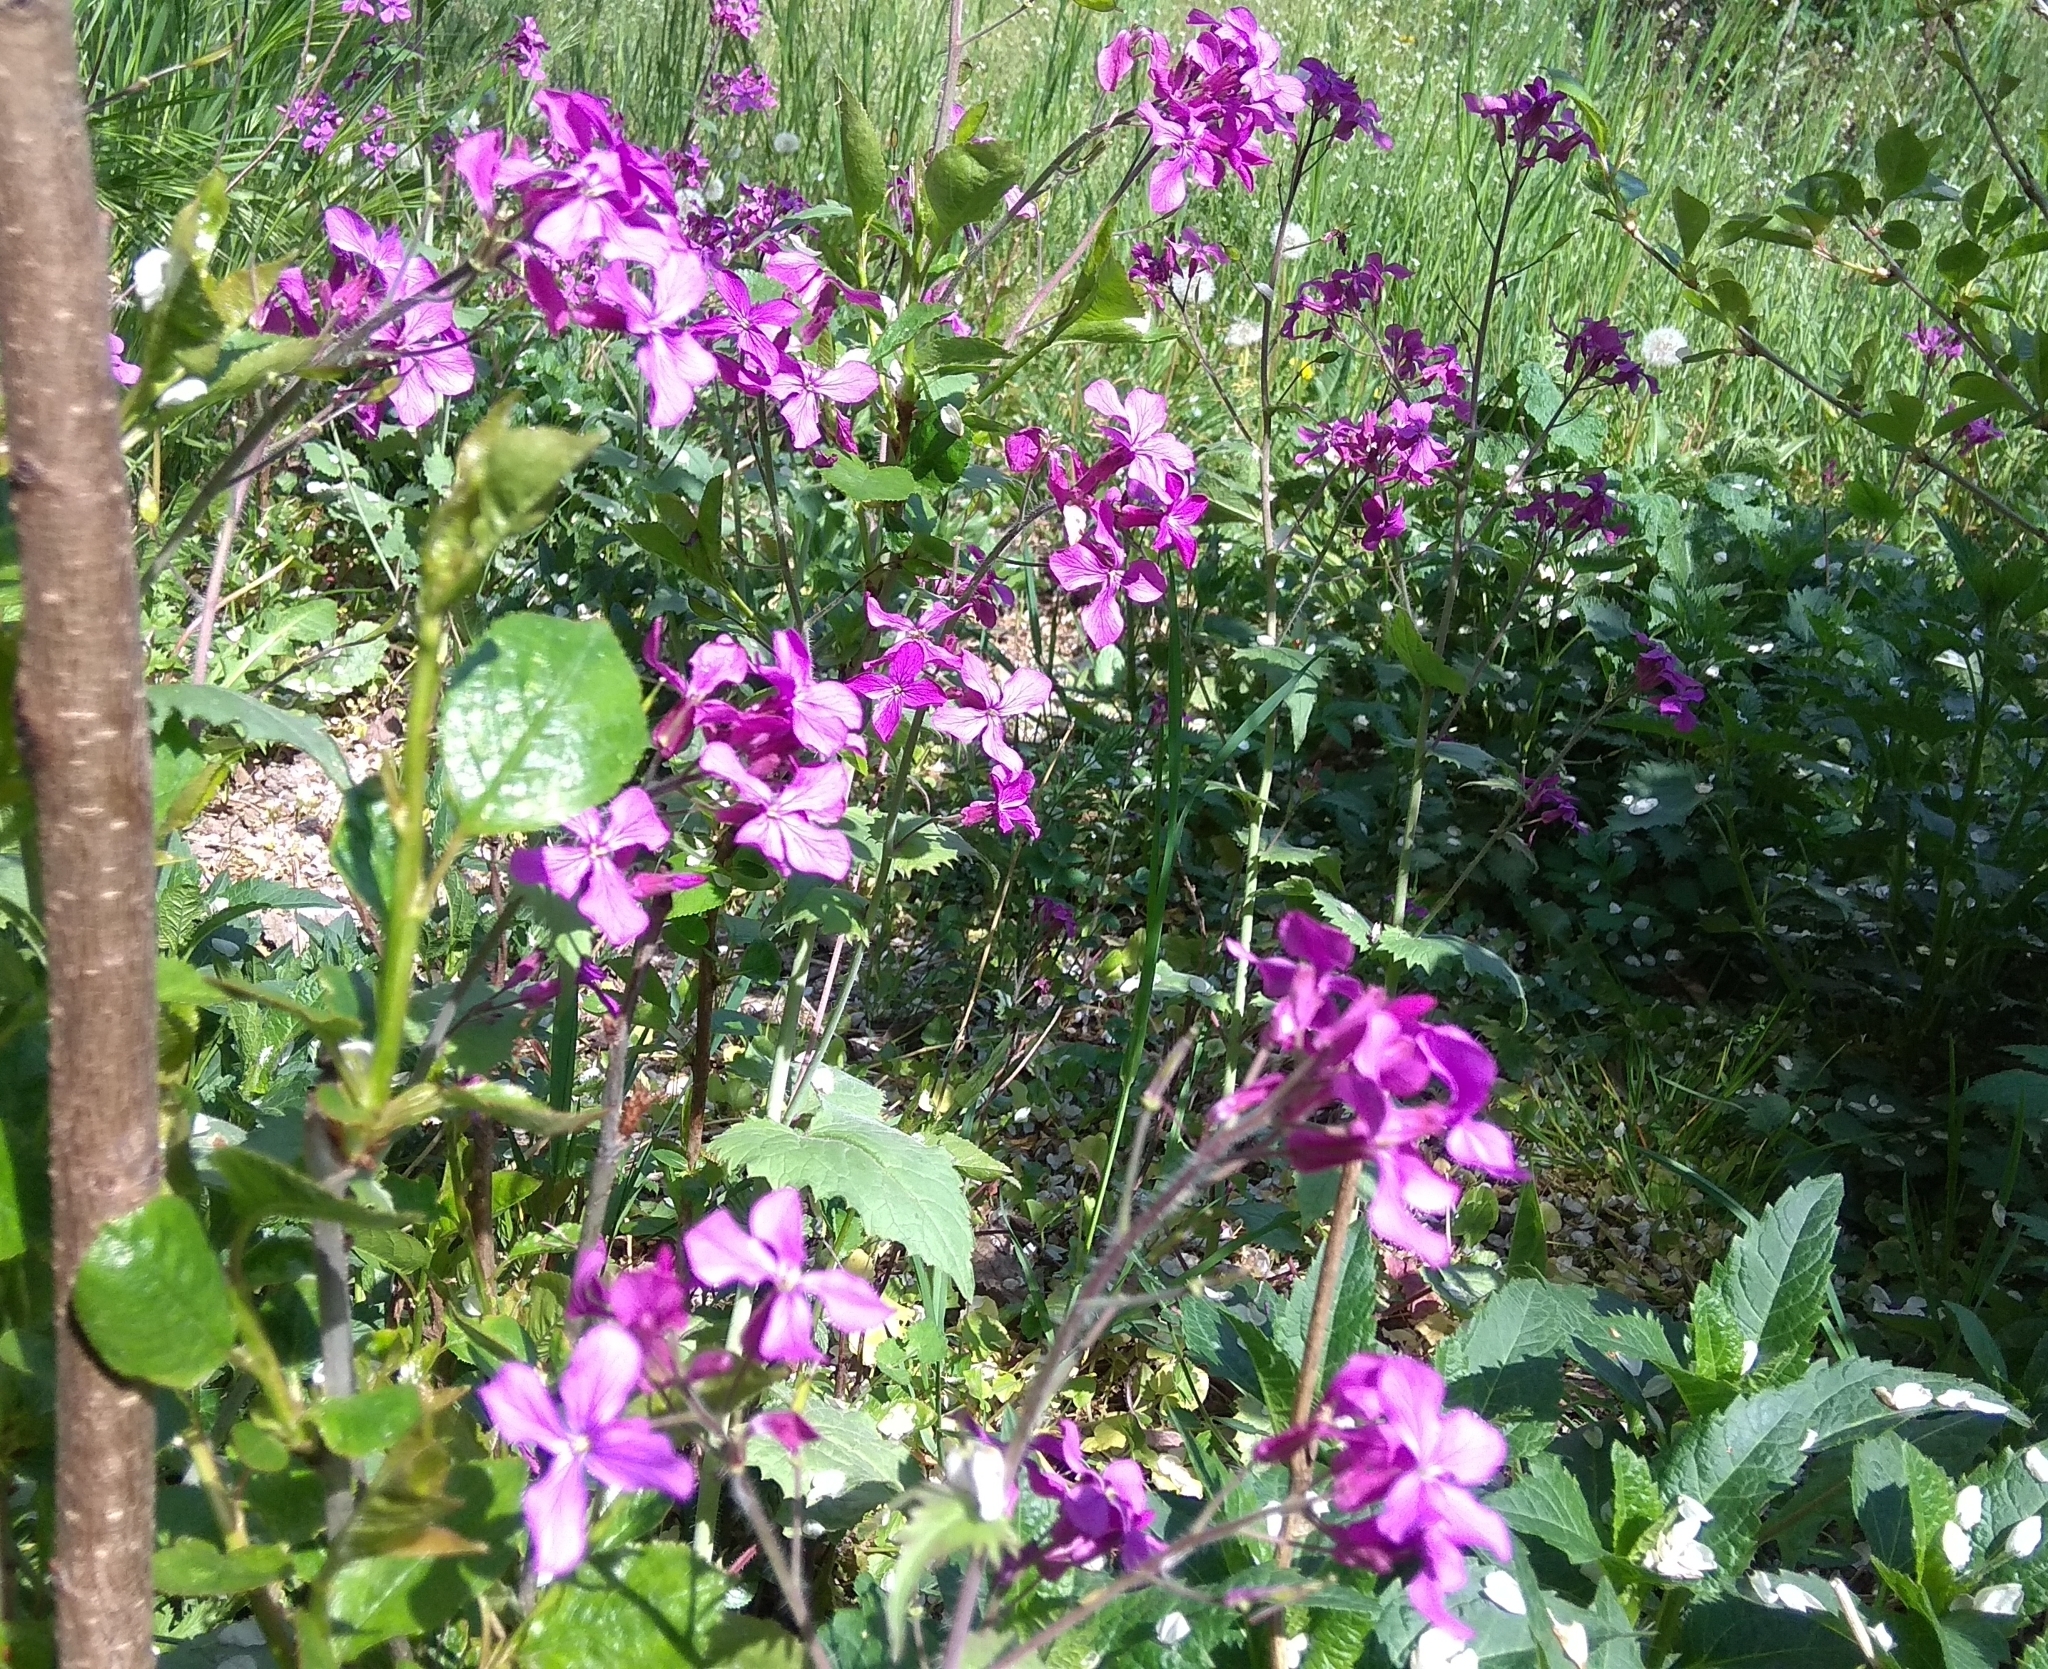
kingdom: Plantae
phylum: Tracheophyta
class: Magnoliopsida
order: Brassicales
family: Brassicaceae
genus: Lunaria
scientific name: Lunaria annua
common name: Honesty
